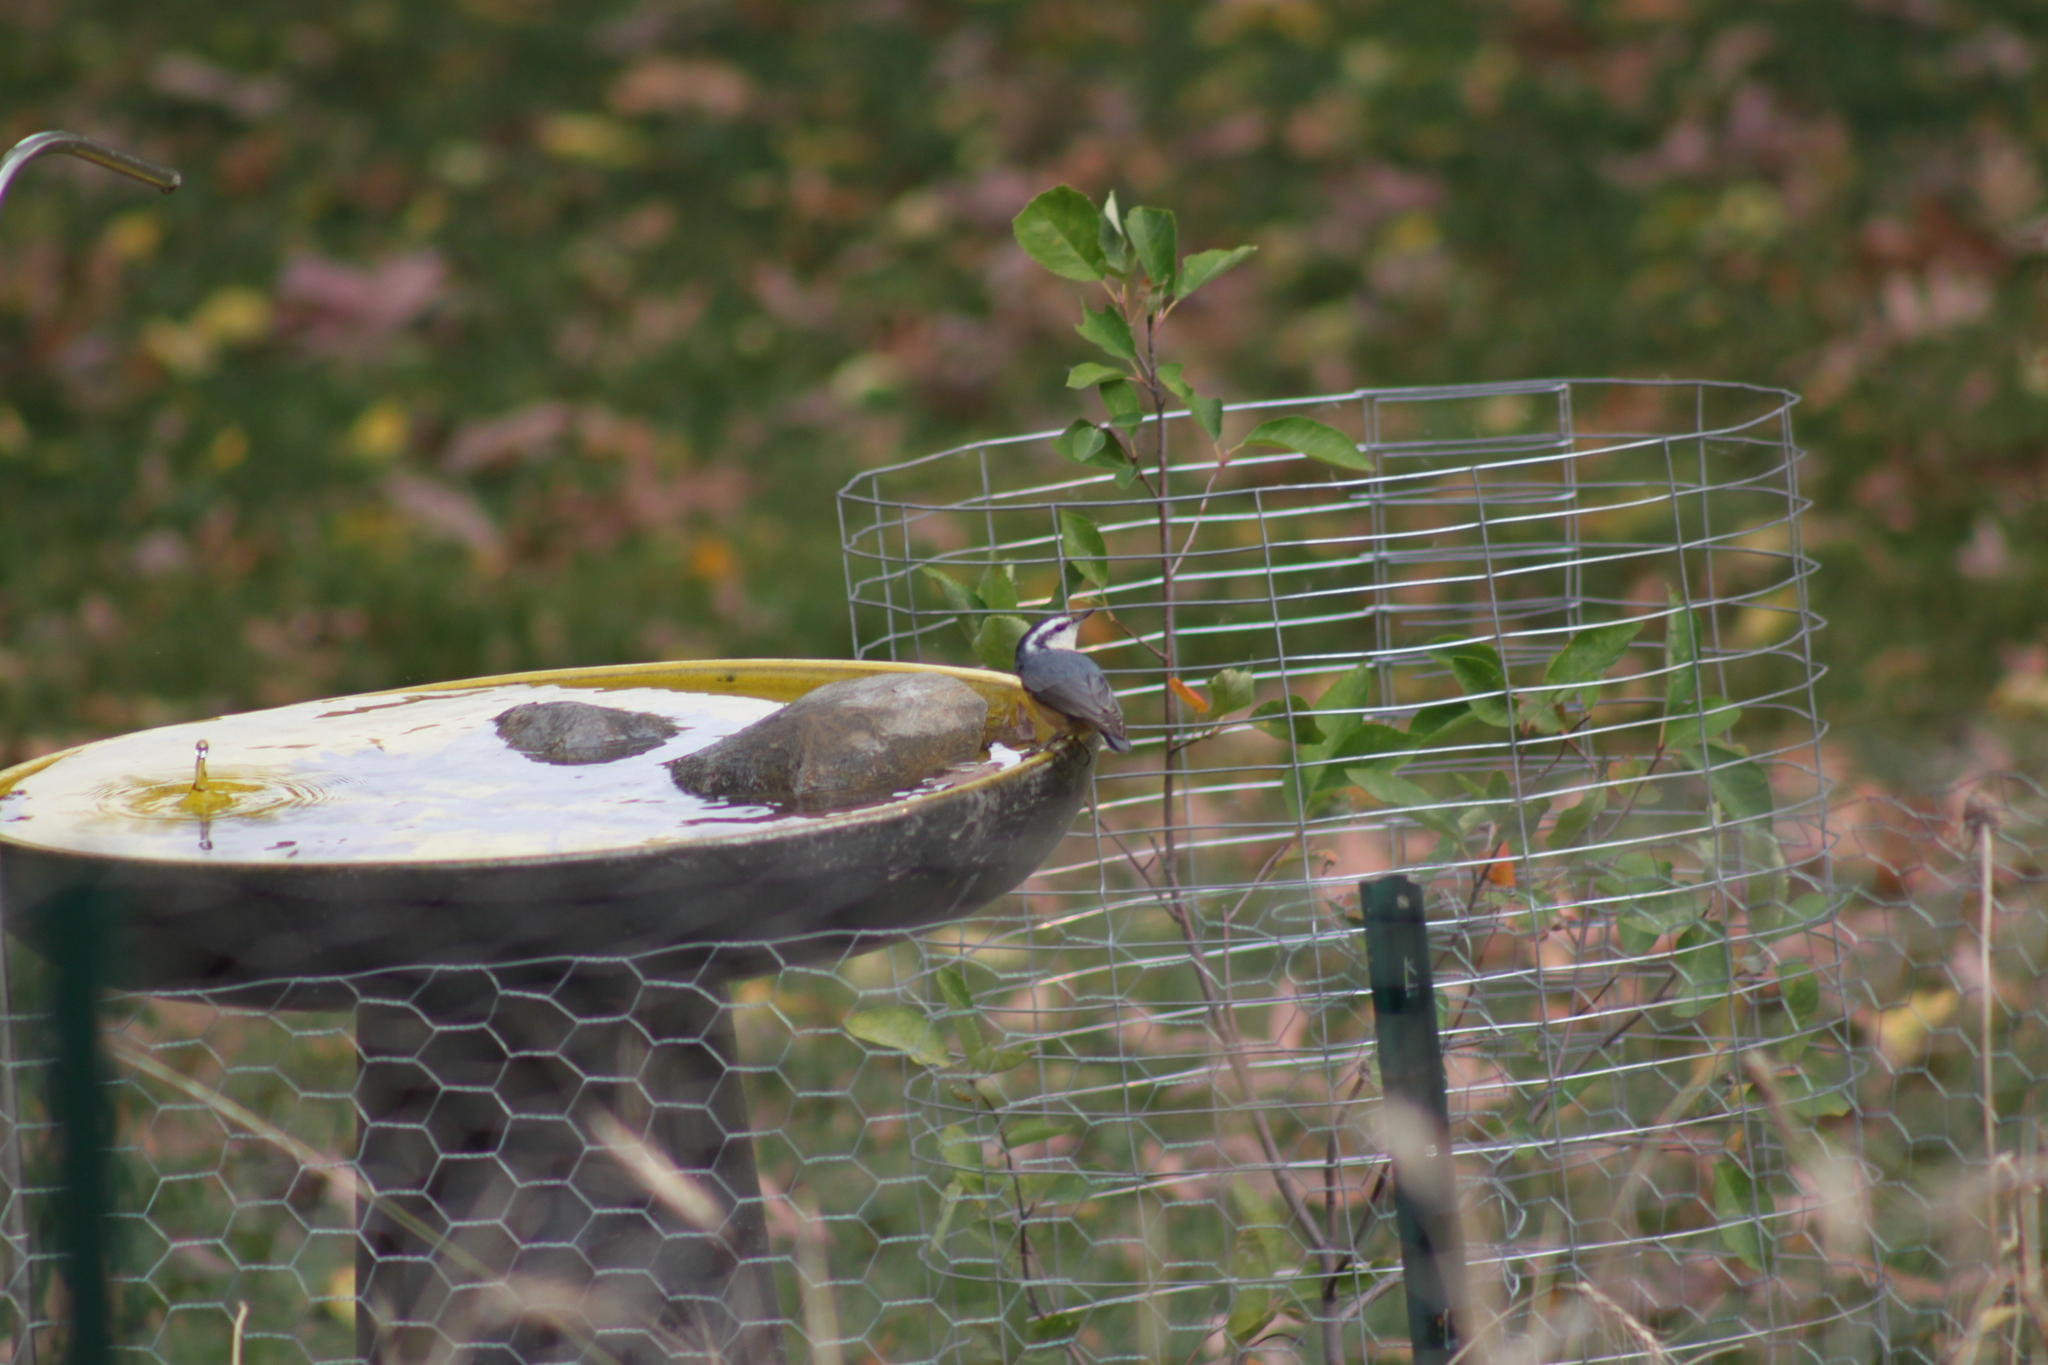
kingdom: Animalia
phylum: Chordata
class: Aves
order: Passeriformes
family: Sittidae
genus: Sitta
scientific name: Sitta canadensis
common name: Red-breasted nuthatch
